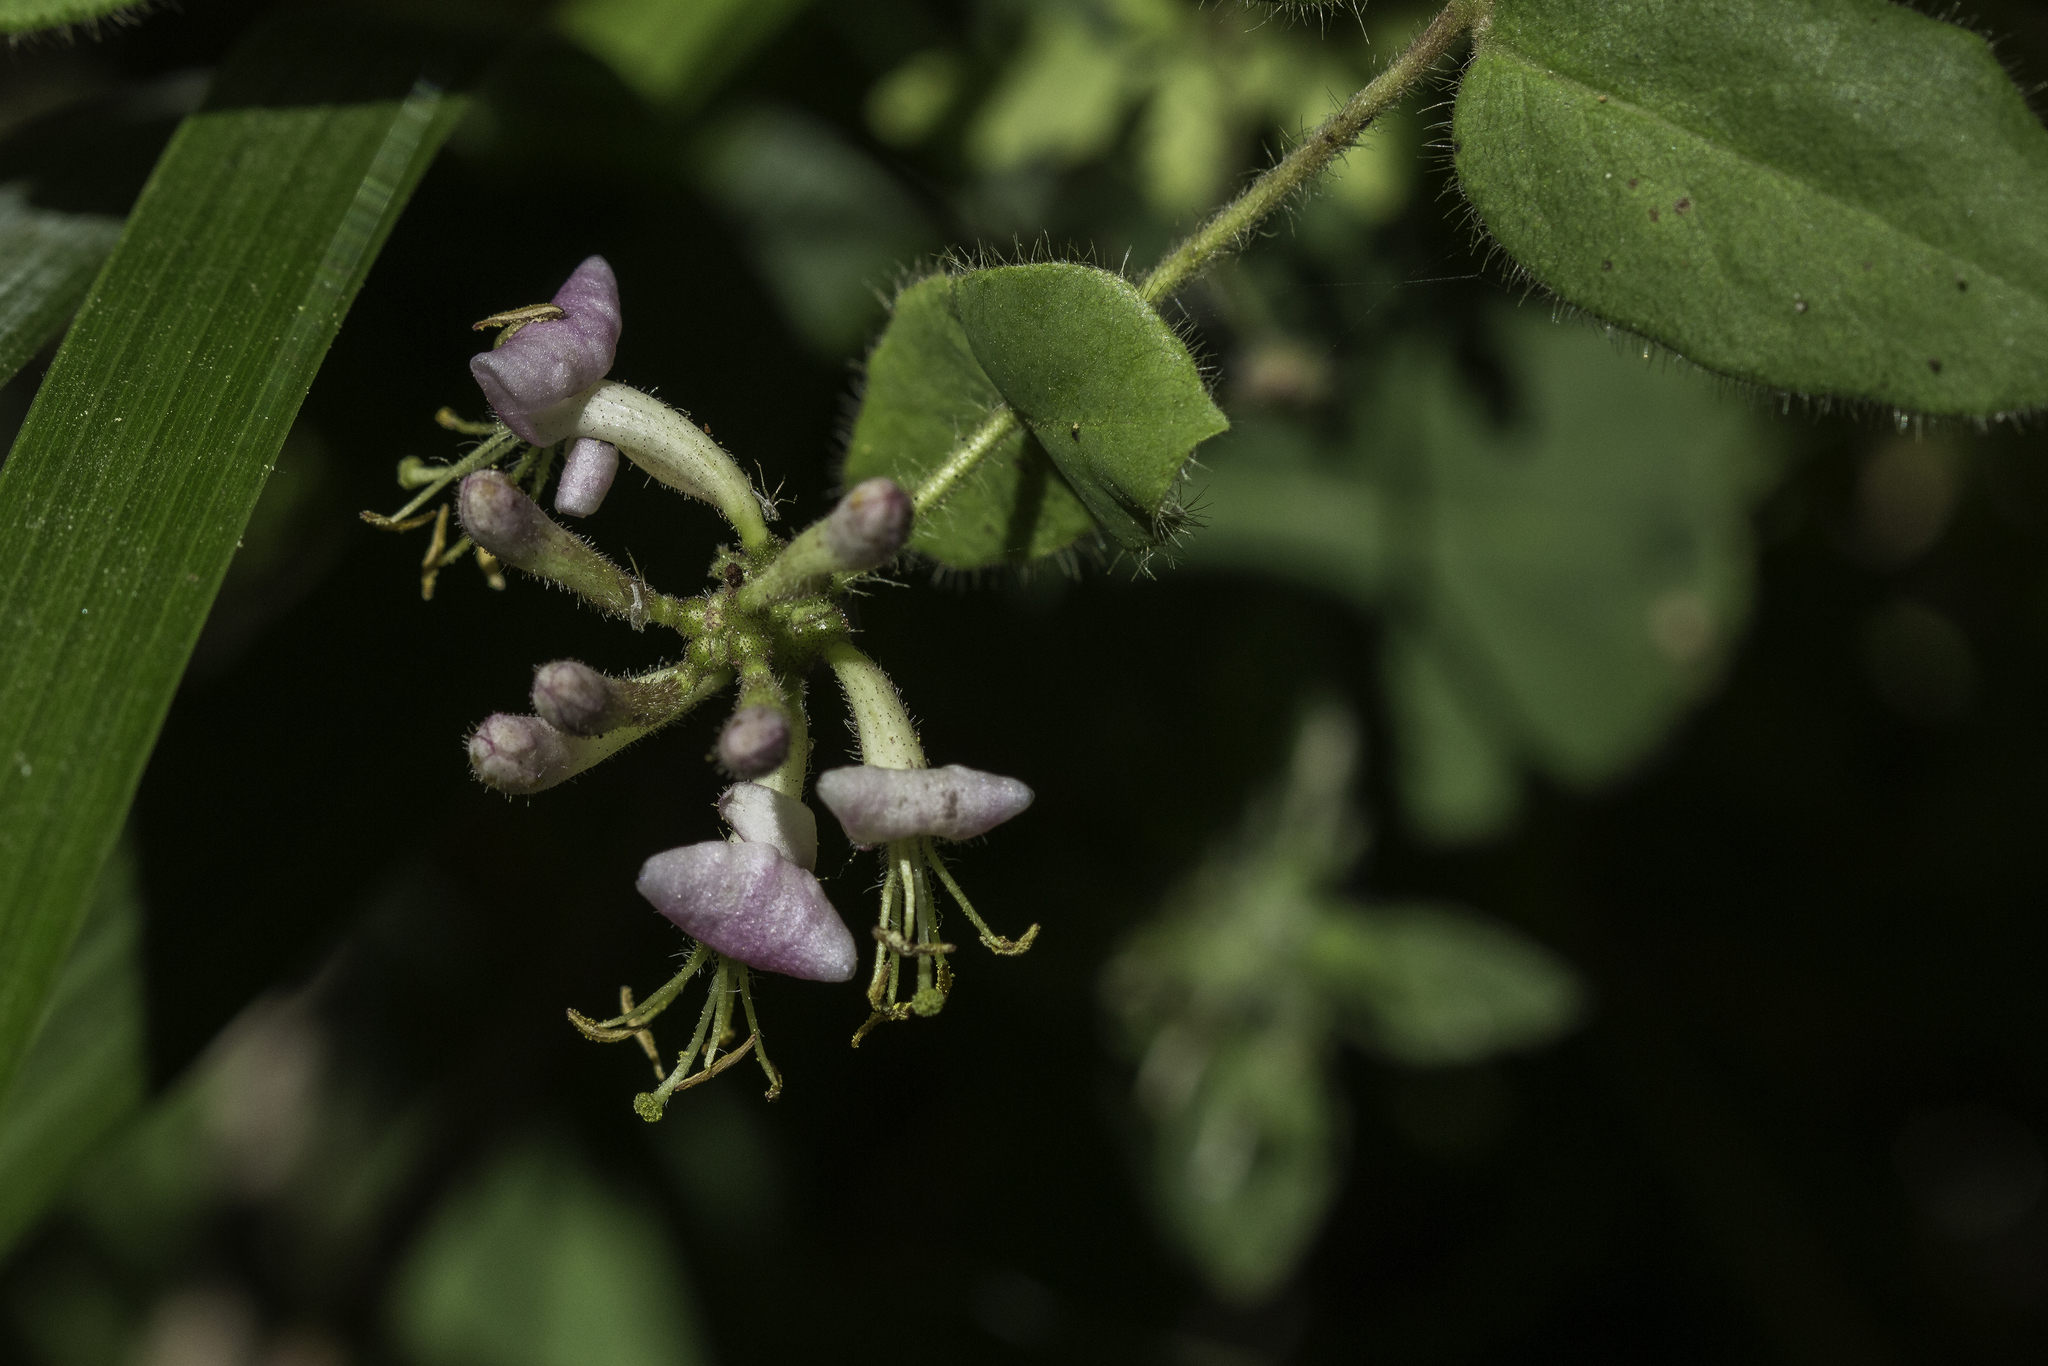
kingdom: Plantae
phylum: Tracheophyta
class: Magnoliopsida
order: Dipsacales
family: Caprifoliaceae
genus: Lonicera
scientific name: Lonicera hispidula
